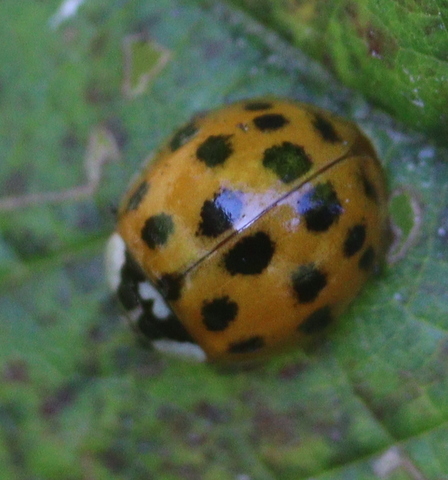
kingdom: Animalia
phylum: Arthropoda
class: Insecta
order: Coleoptera
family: Coccinellidae
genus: Harmonia
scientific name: Harmonia axyridis
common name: Harlequin ladybird
